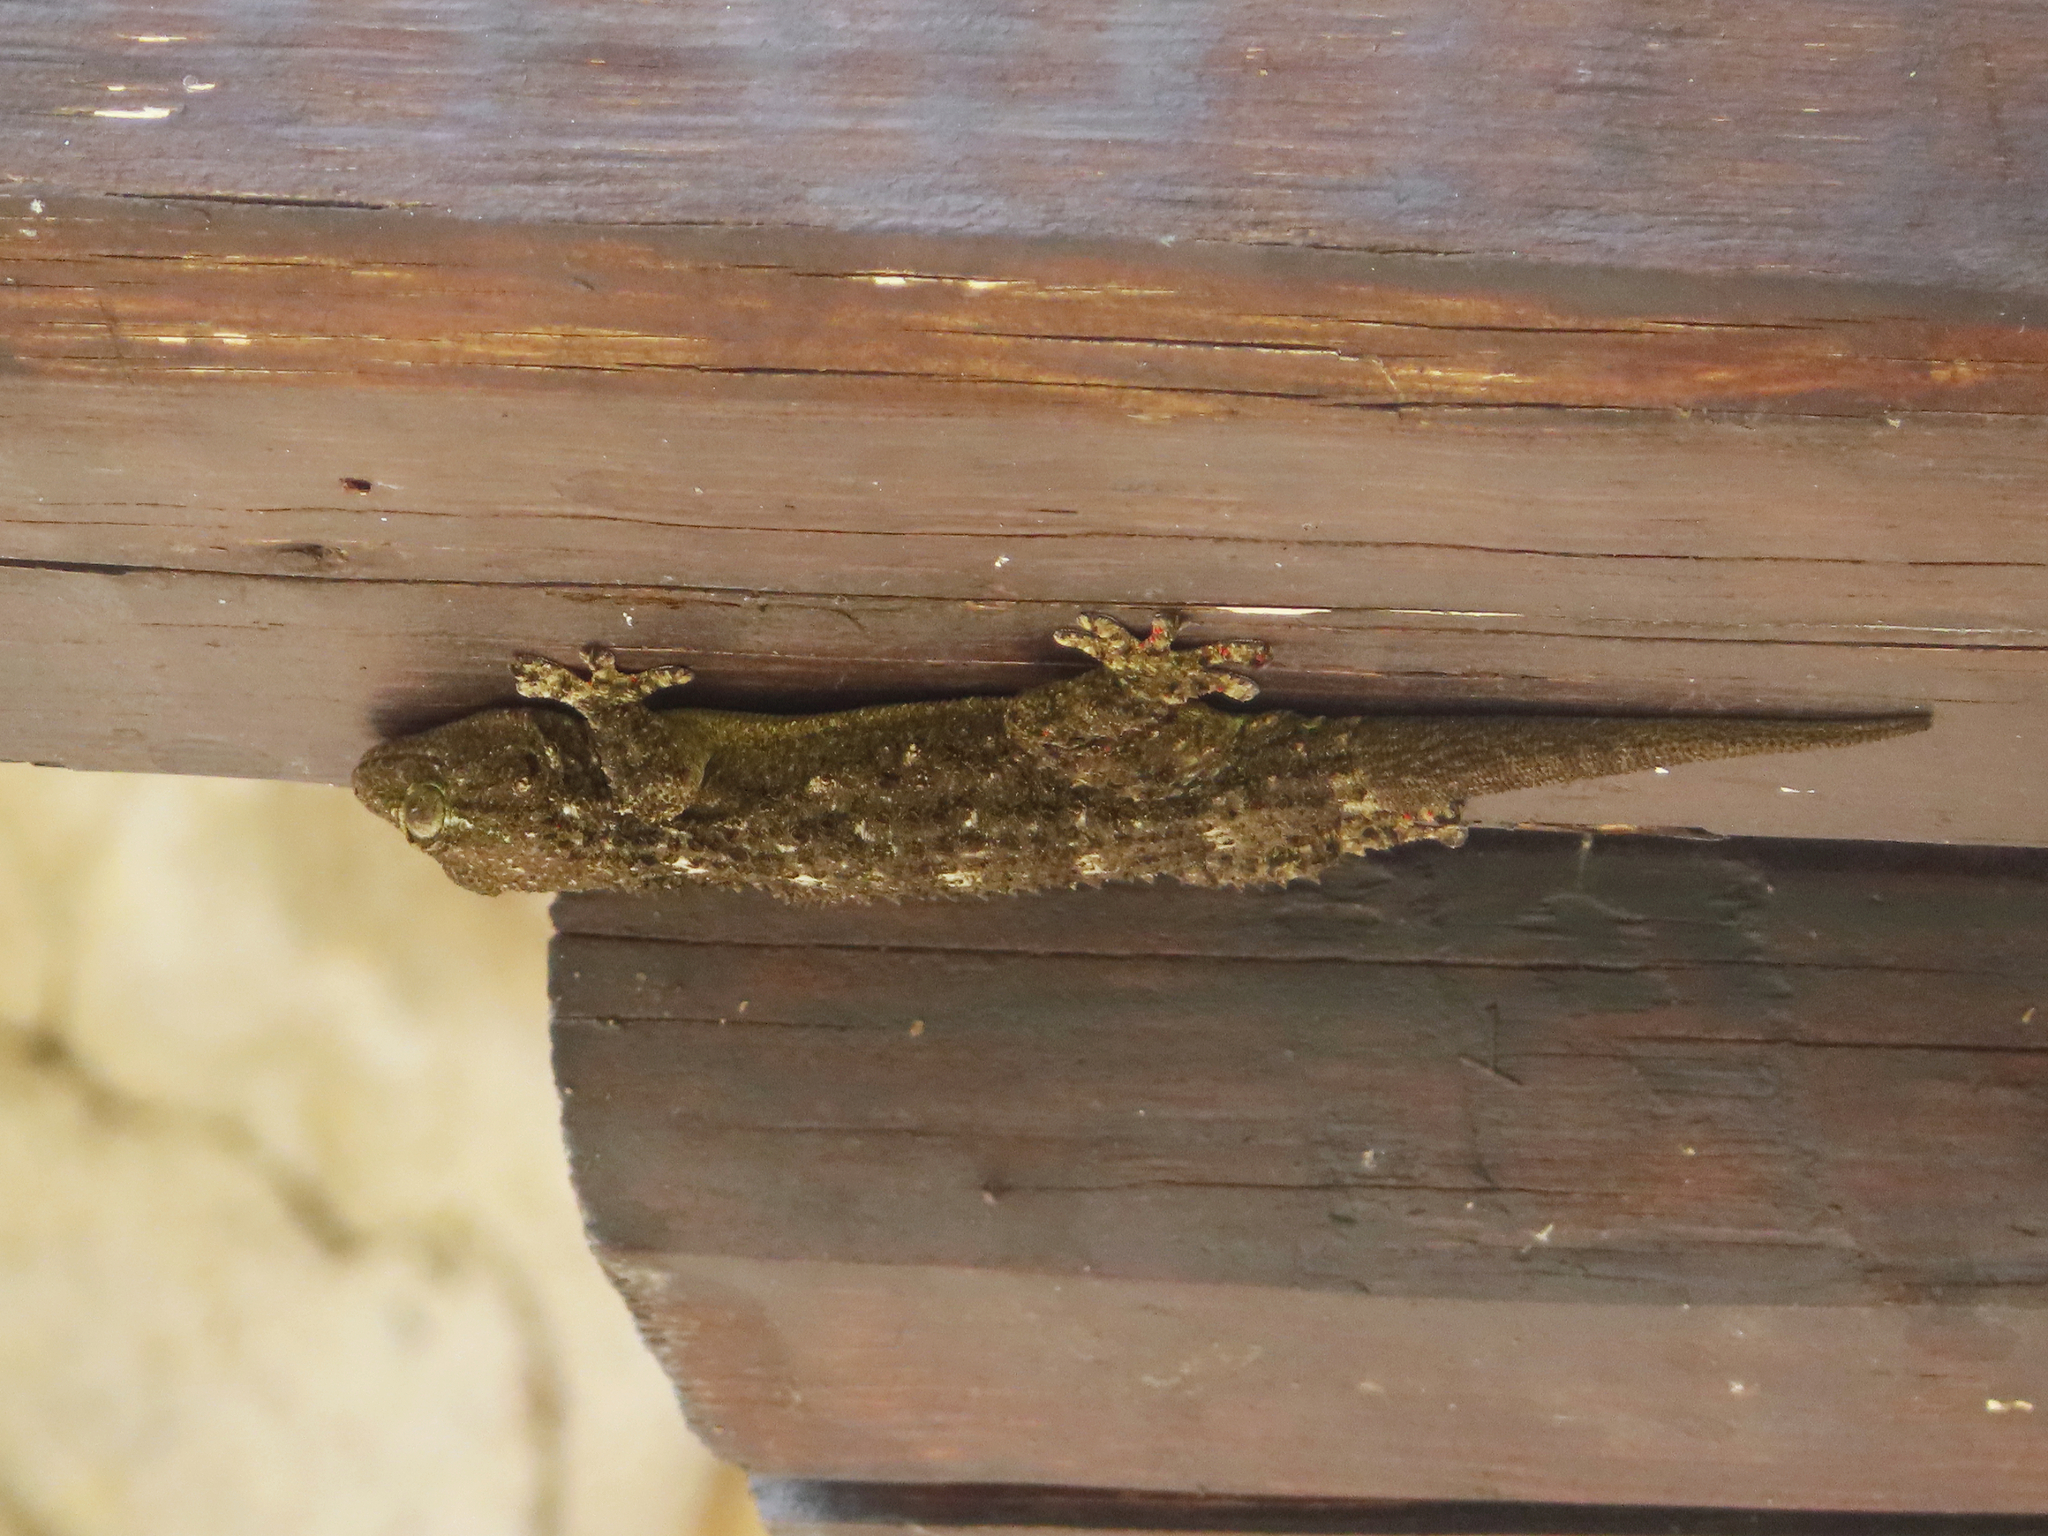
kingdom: Animalia
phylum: Chordata
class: Squamata
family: Phyllodactylidae
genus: Tarentola
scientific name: Tarentola mauritanica
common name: Moorish gecko
